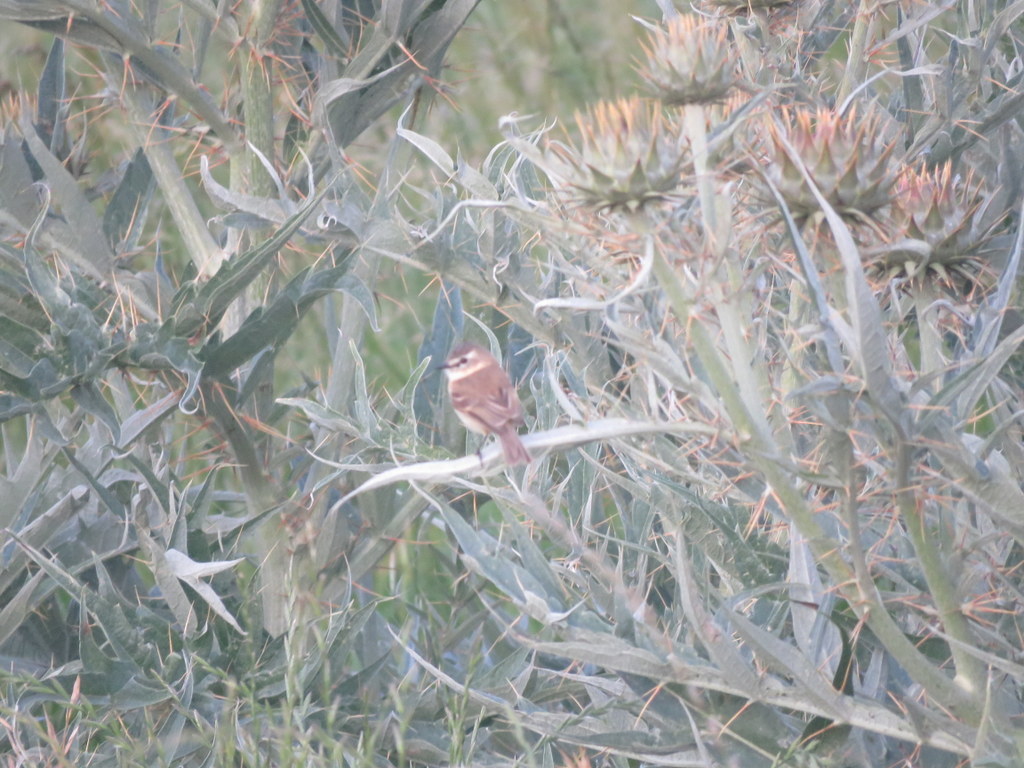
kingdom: Animalia
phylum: Chordata
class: Aves
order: Passeriformes
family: Tyrannidae
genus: Polystictus
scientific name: Polystictus pectoralis
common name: Bearded tachuri
